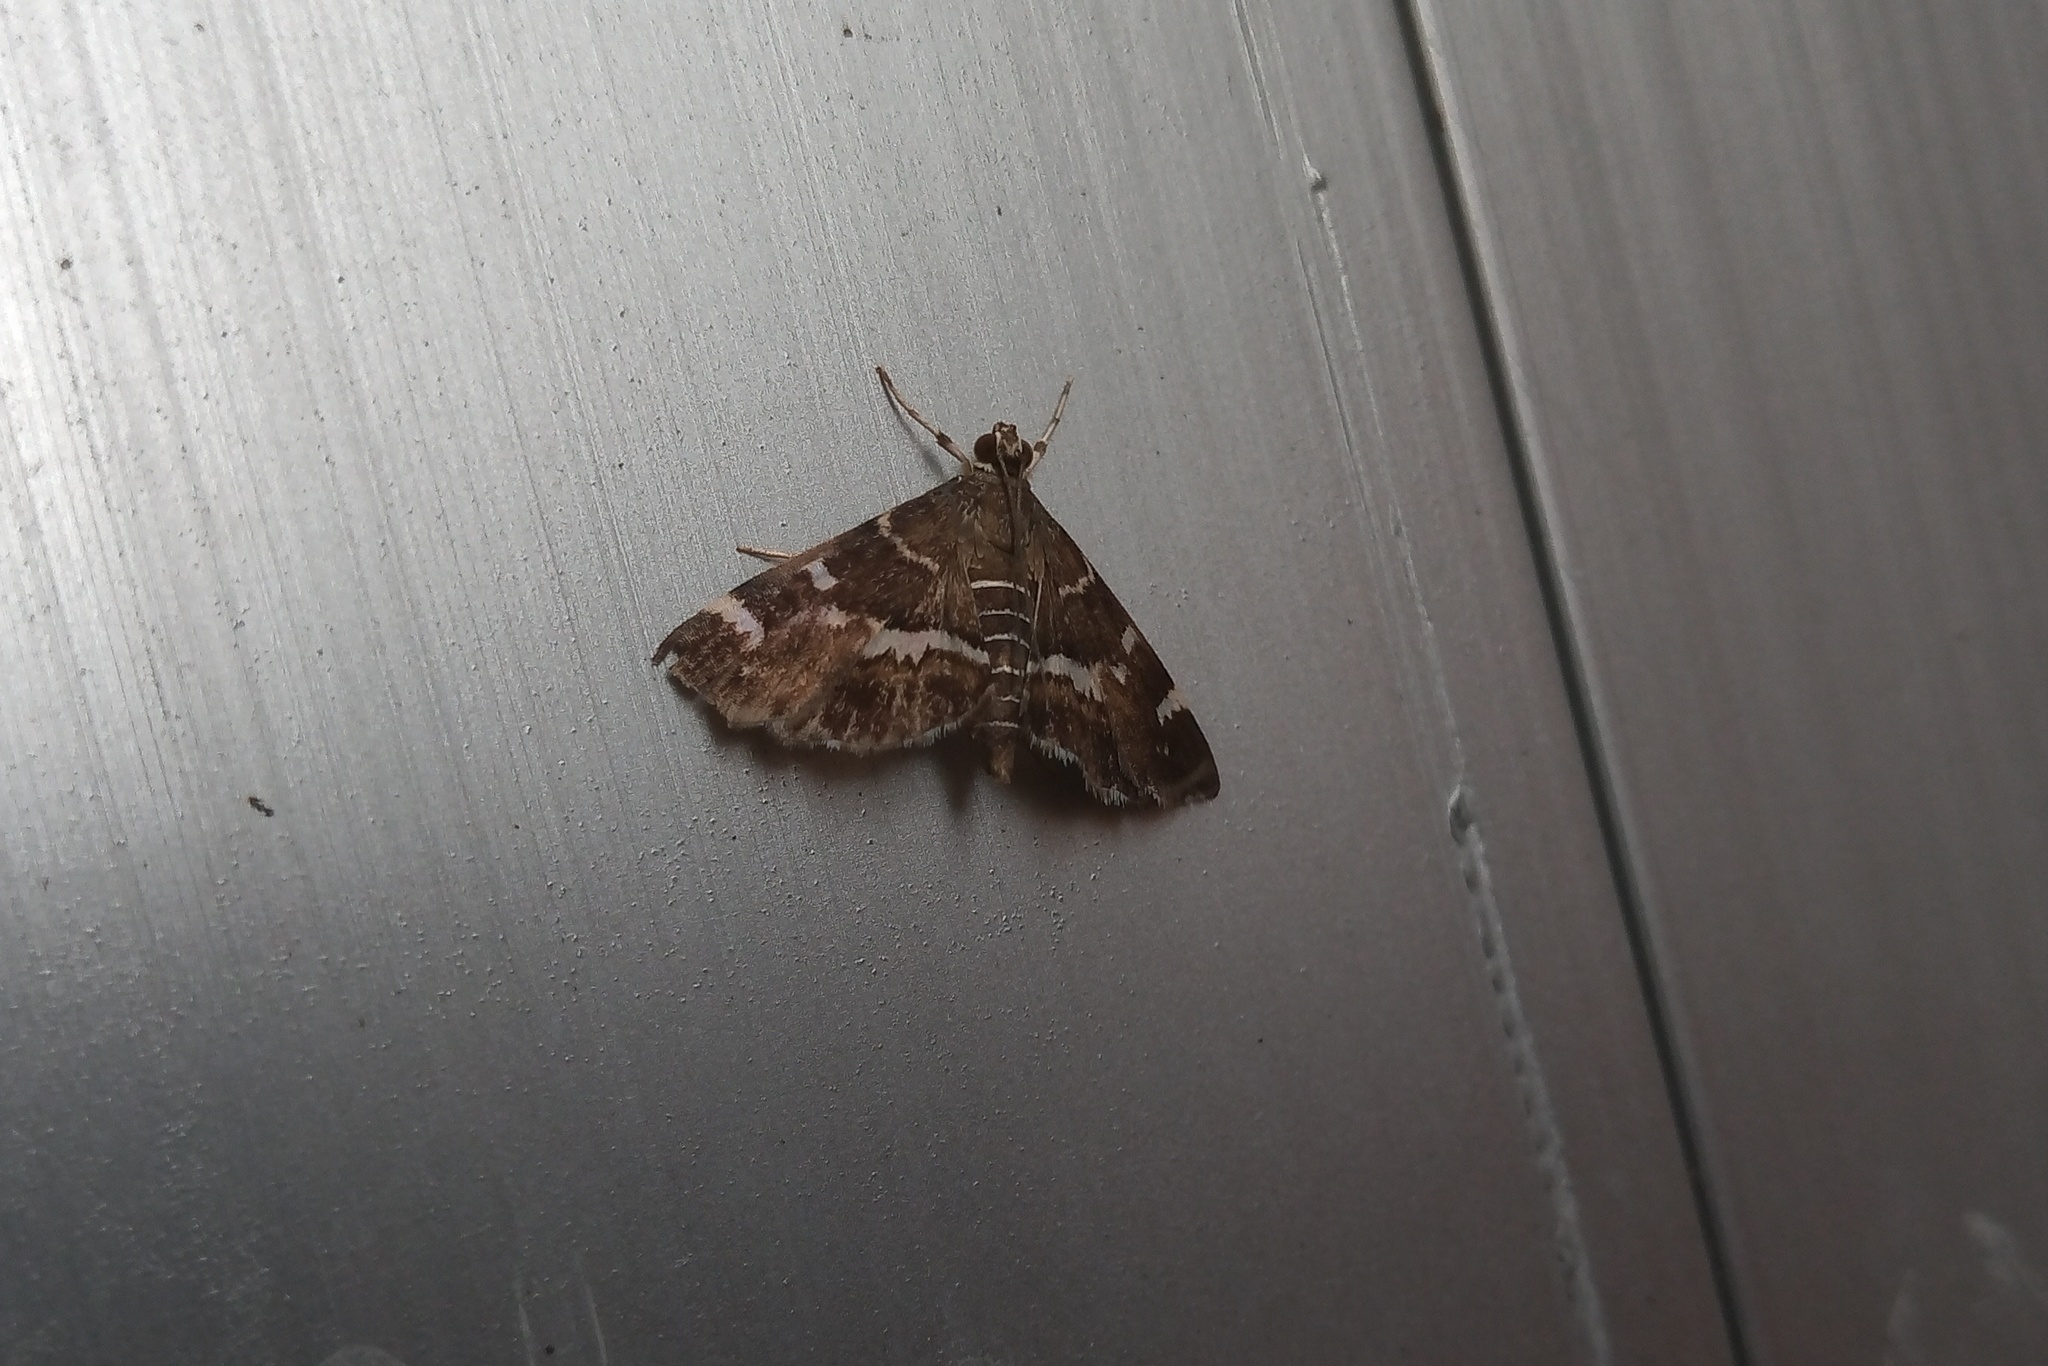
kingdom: Animalia
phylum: Arthropoda
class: Insecta
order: Lepidoptera
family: Crambidae
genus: Hymenia
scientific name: Hymenia perspectalis
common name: Spotted beet webworm
